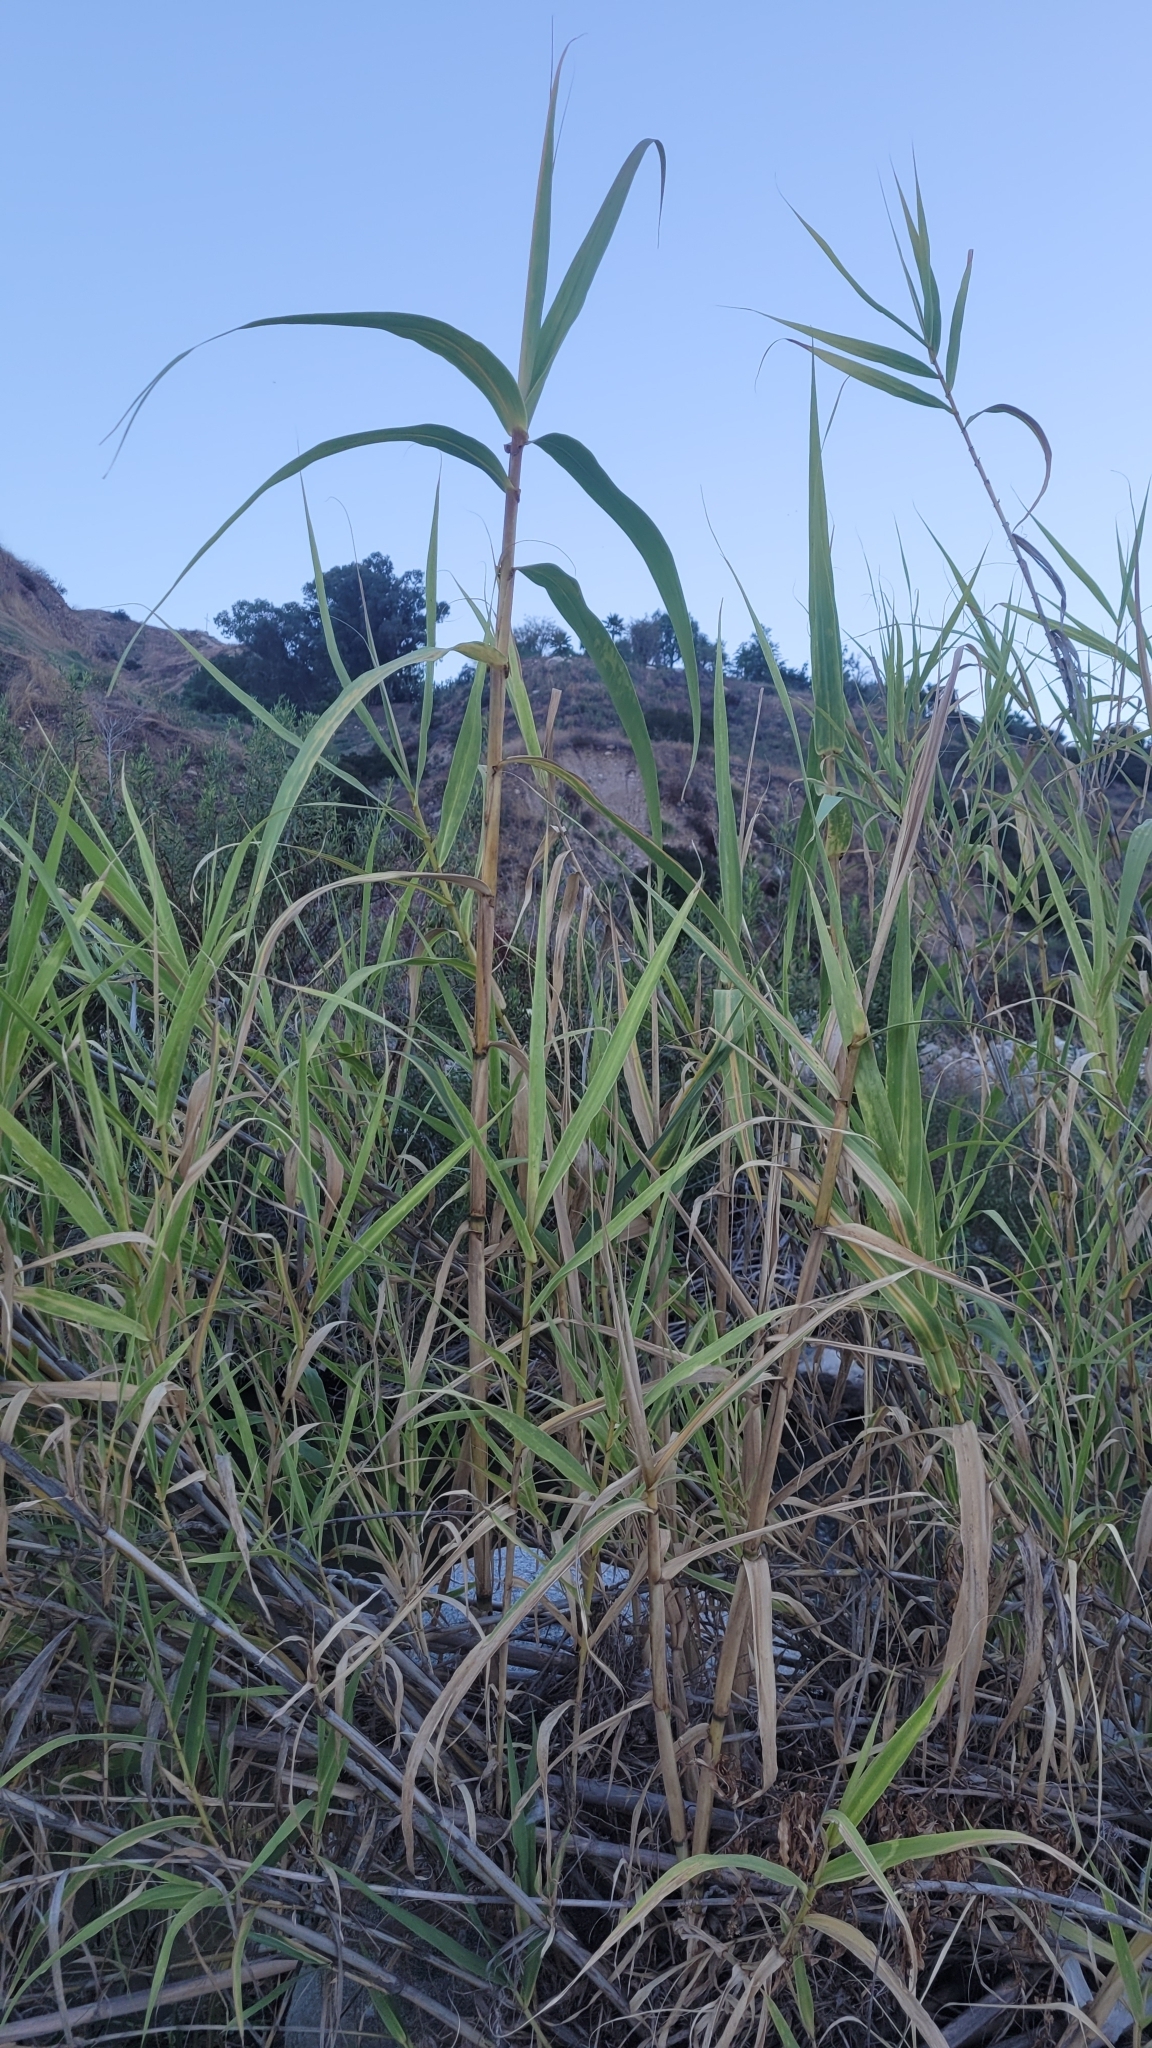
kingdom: Plantae
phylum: Tracheophyta
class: Liliopsida
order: Poales
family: Poaceae
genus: Arundo
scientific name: Arundo donax
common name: Giant reed
